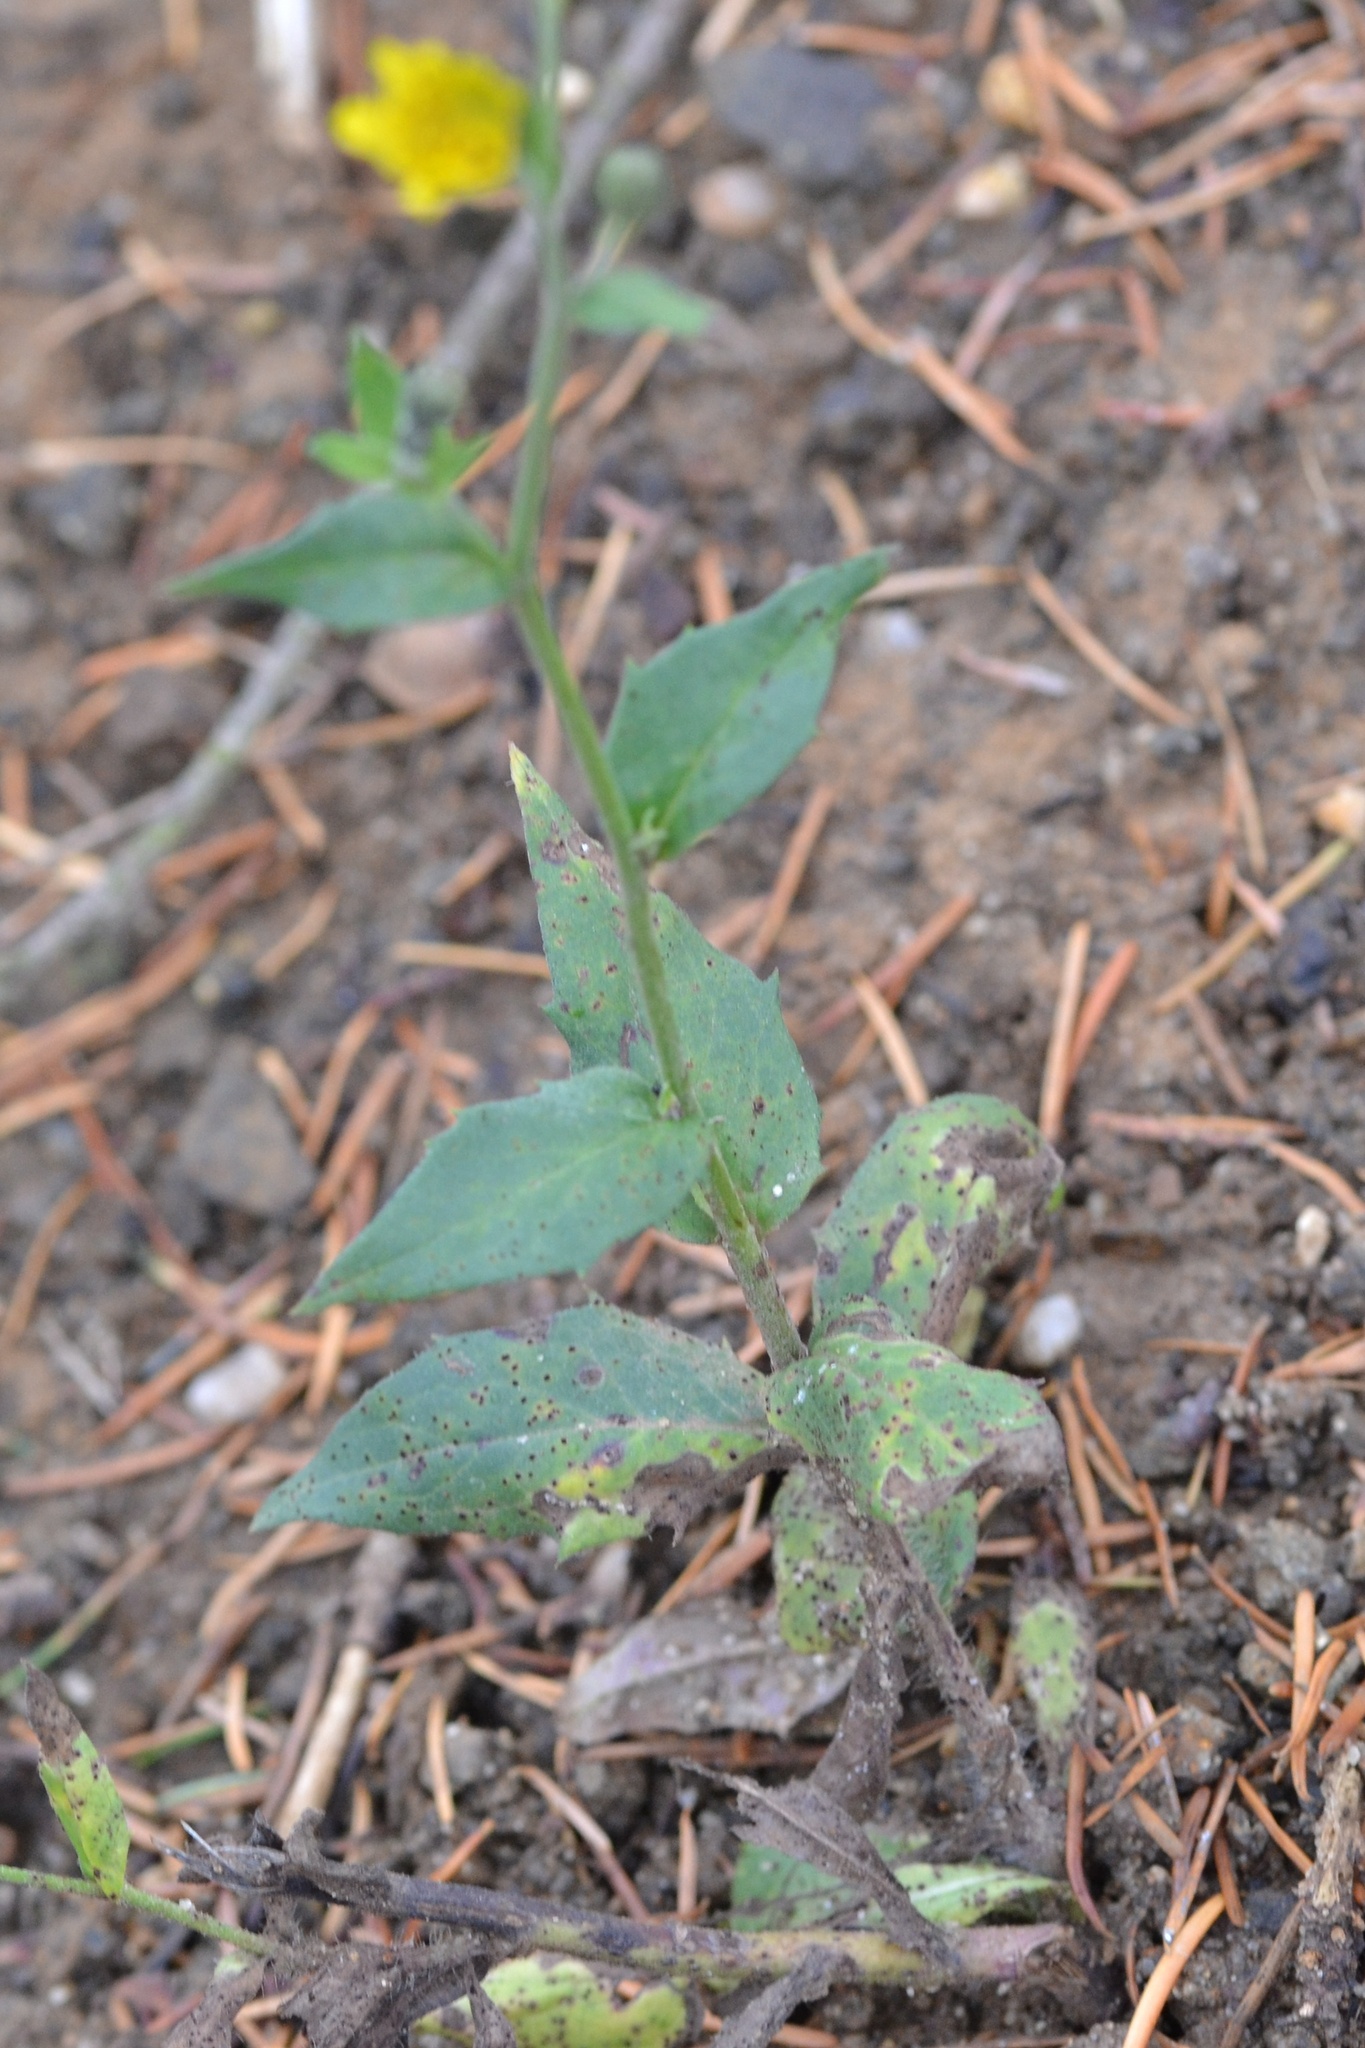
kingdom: Plantae
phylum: Tracheophyta
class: Magnoliopsida
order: Asterales
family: Asteraceae
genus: Hieracium
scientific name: Hieracium sabaudum
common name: New england hawkweed
